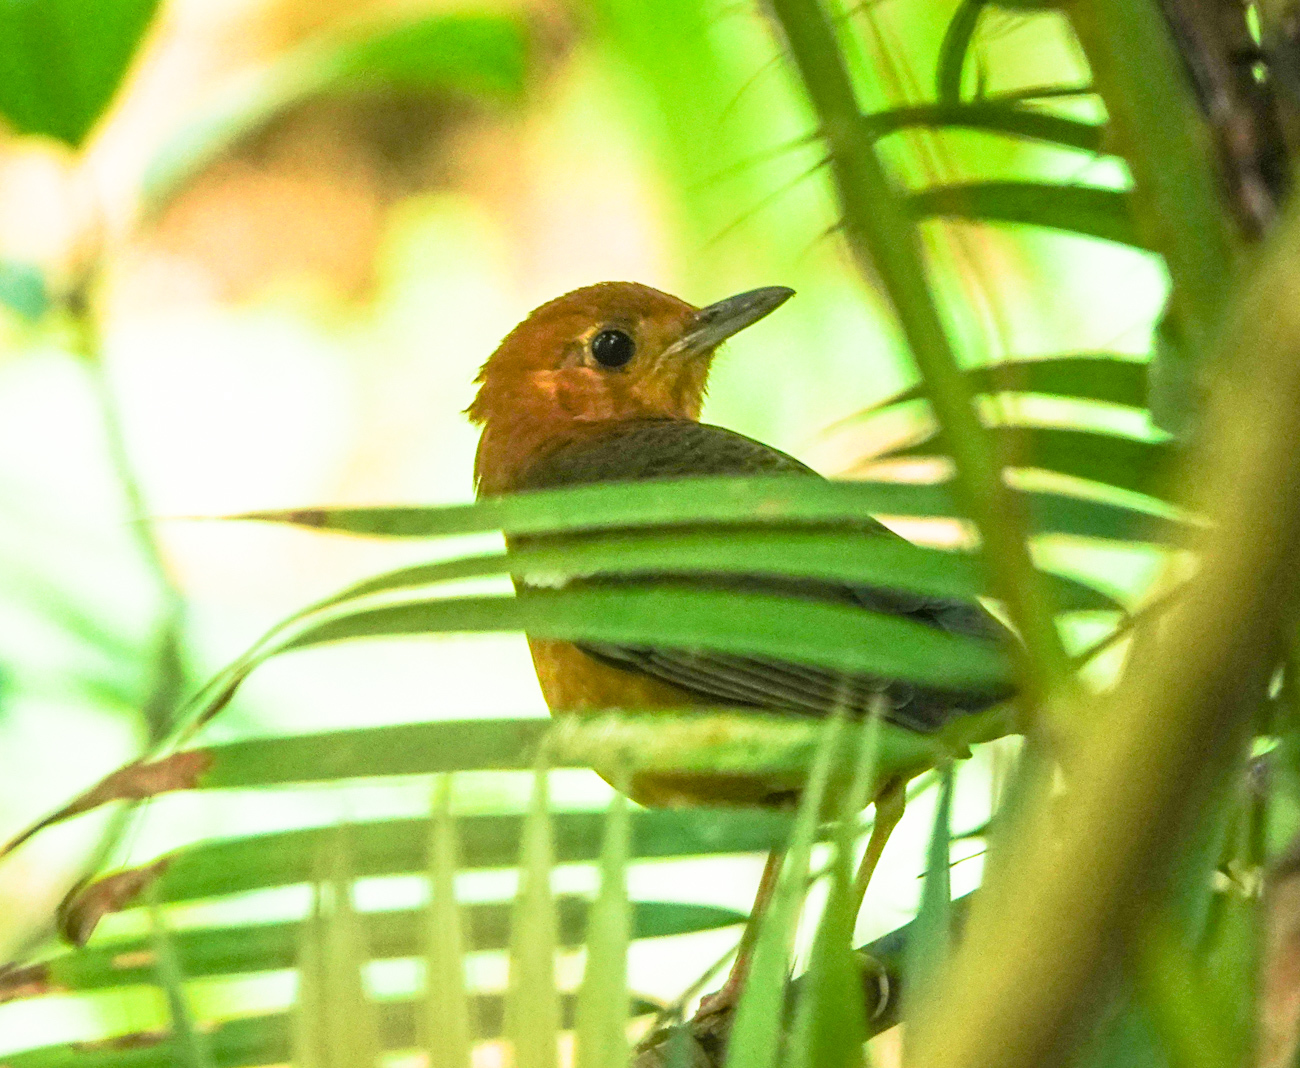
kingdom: Animalia
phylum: Chordata
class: Aves
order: Passeriformes
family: Turdidae
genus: Geokichla
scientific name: Geokichla citrina
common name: Orange-headed thrush
